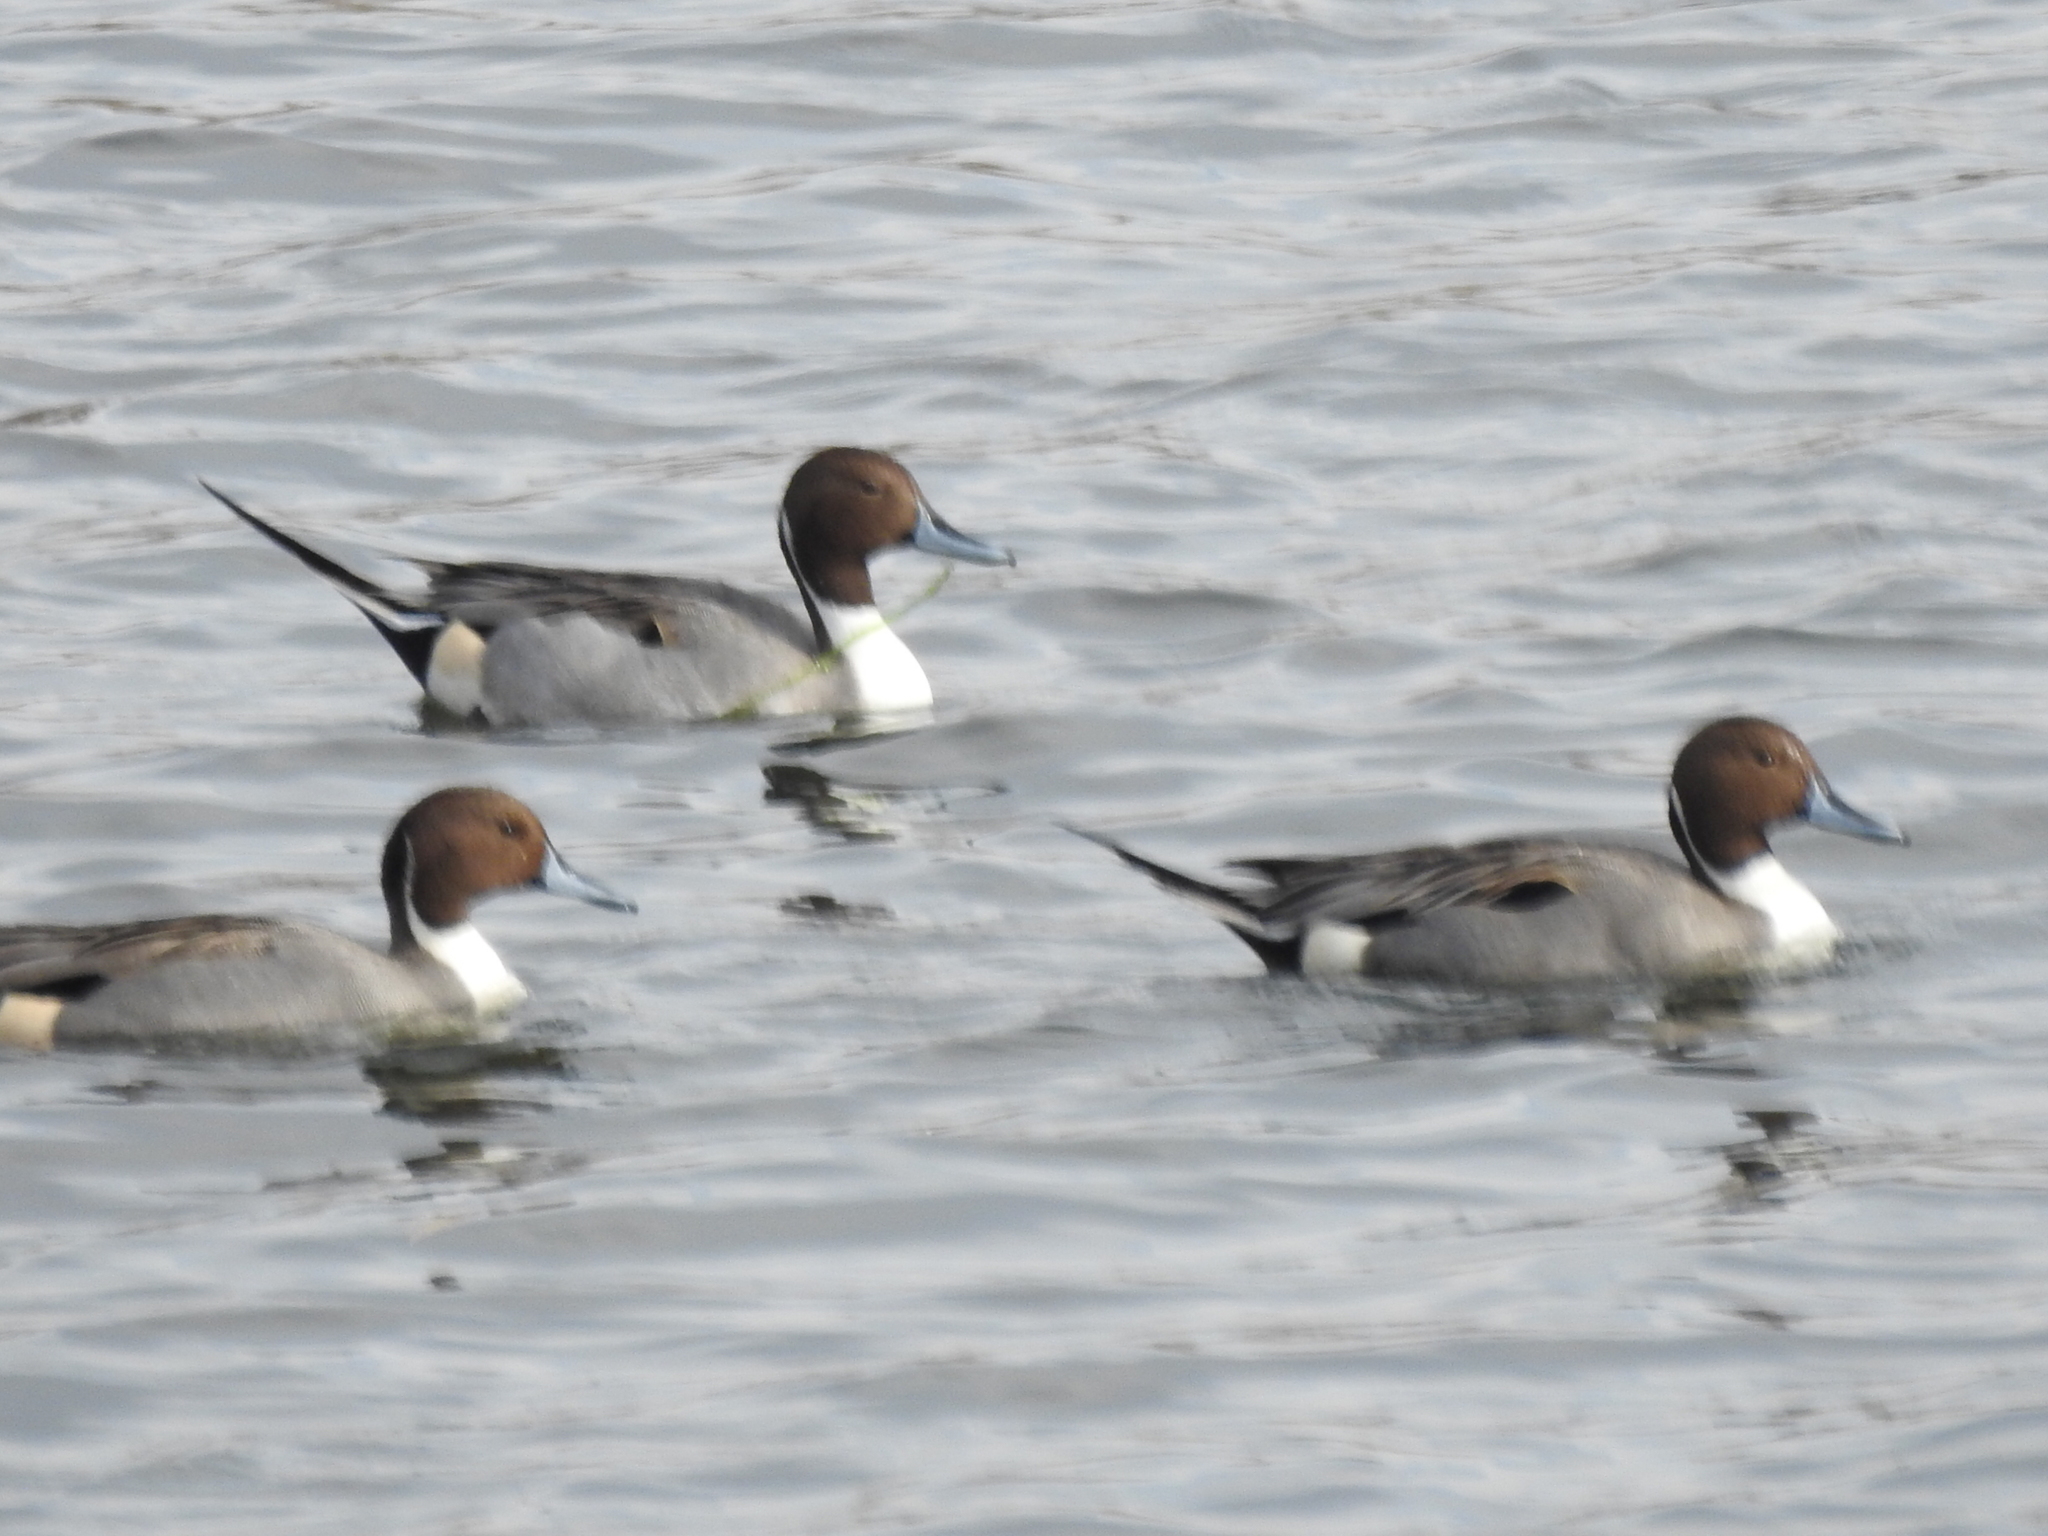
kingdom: Animalia
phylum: Chordata
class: Aves
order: Anseriformes
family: Anatidae
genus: Anas
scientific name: Anas acuta
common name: Northern pintail
